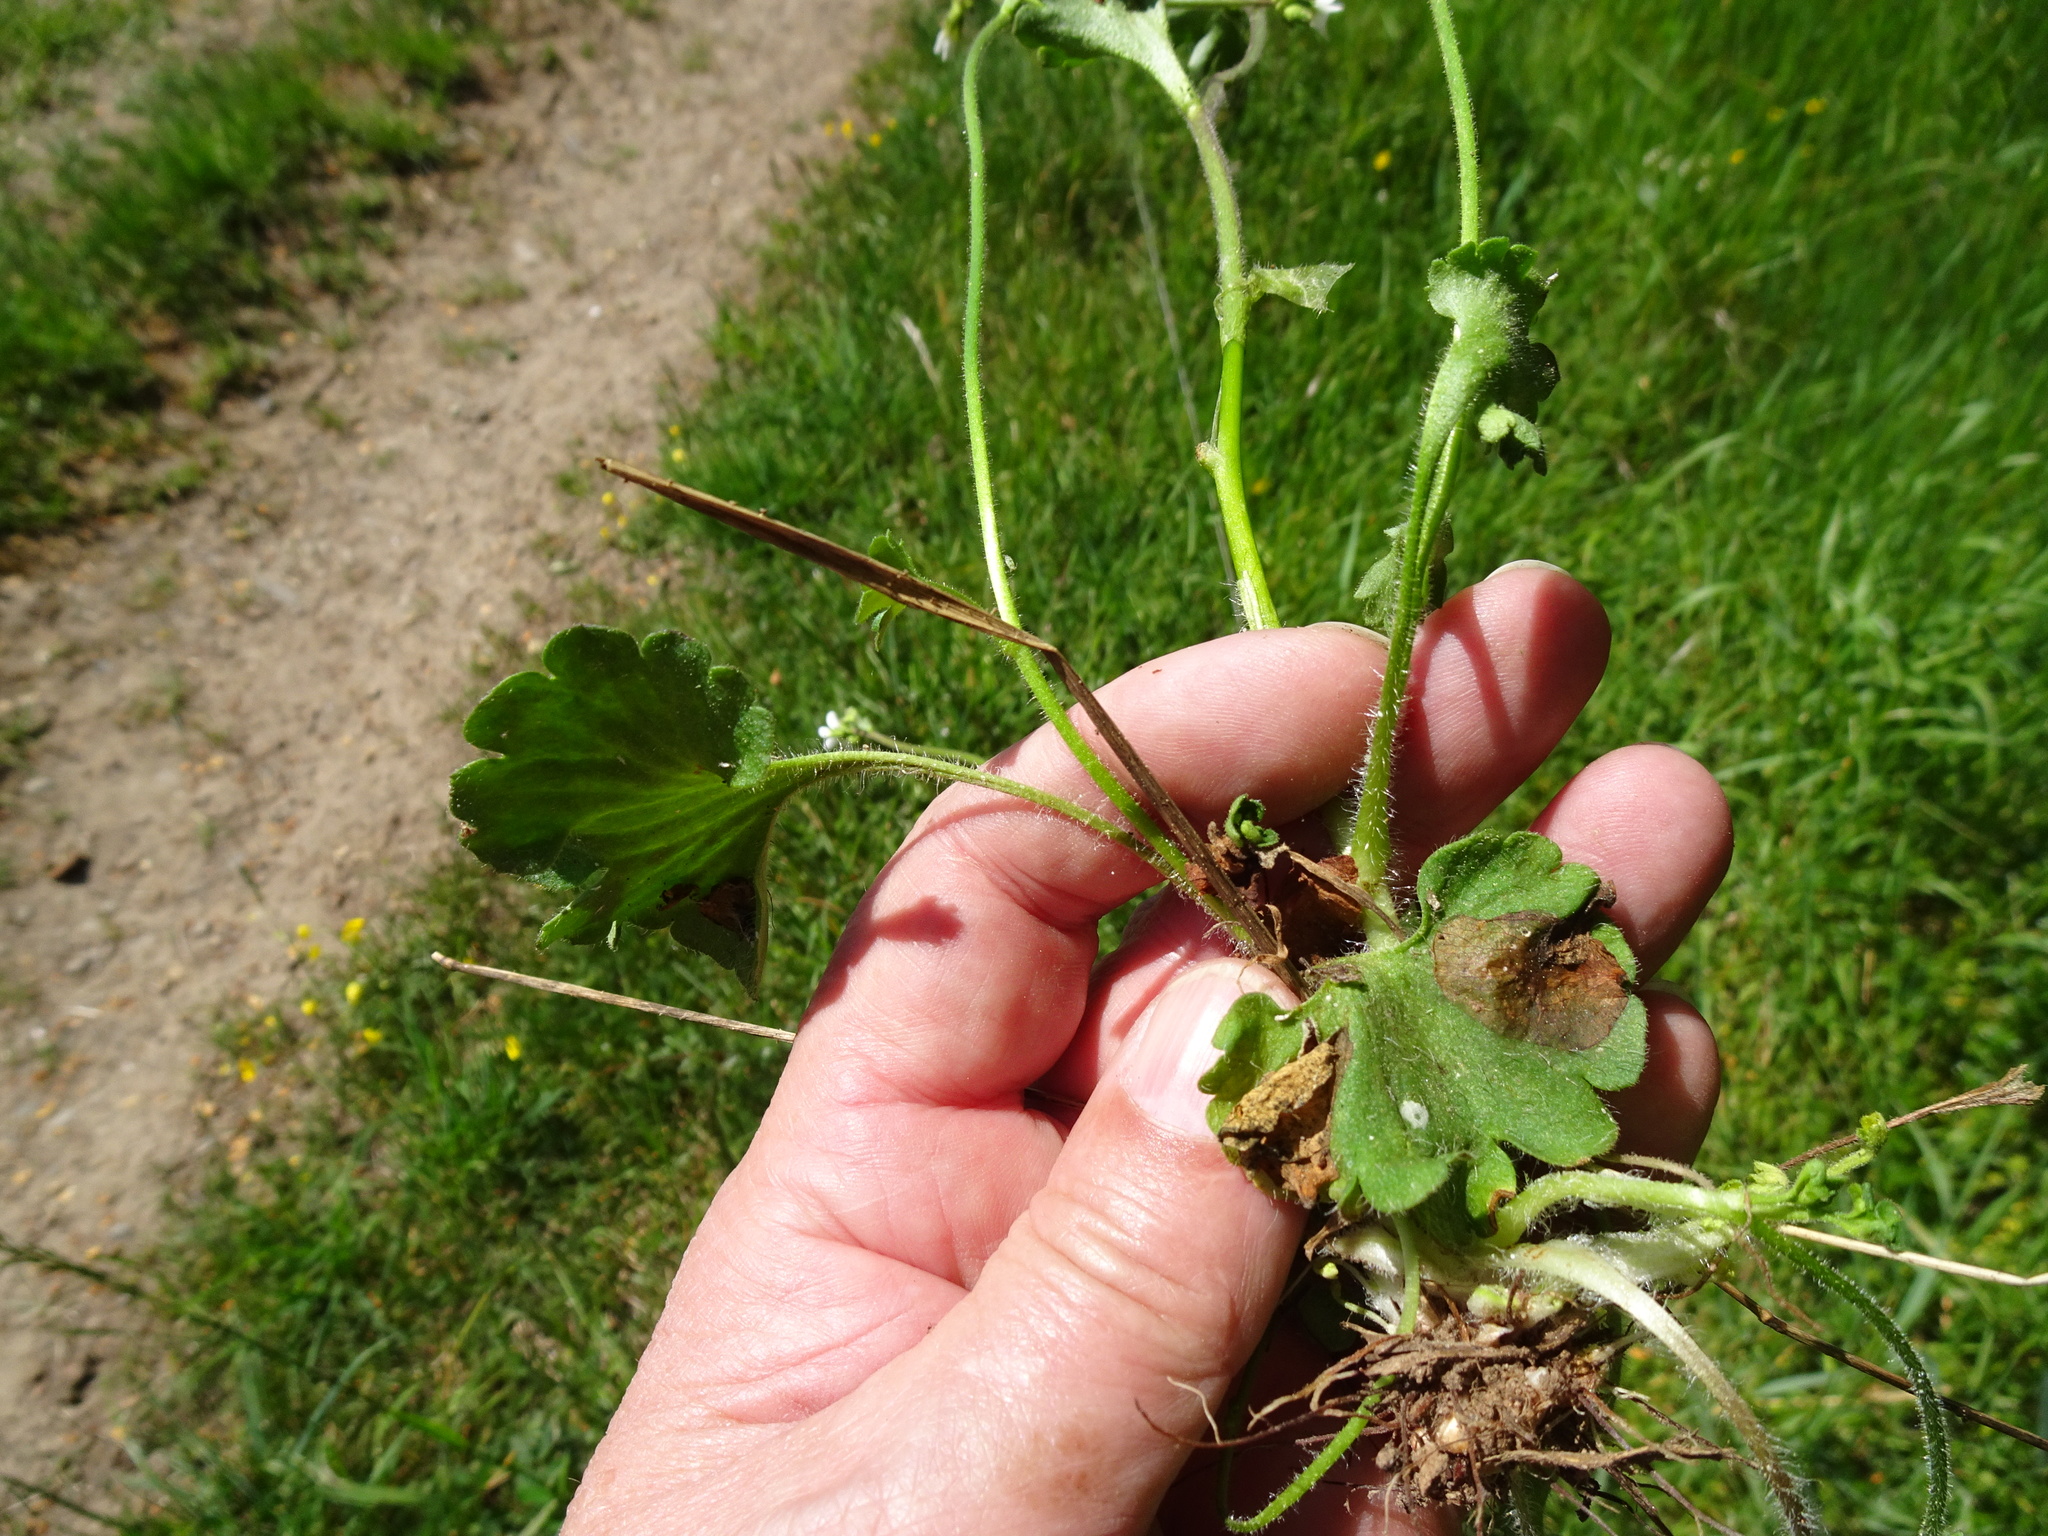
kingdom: Plantae
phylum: Tracheophyta
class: Magnoliopsida
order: Saxifragales
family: Saxifragaceae
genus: Saxifraga
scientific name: Saxifraga granulata
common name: Meadow saxifrage
